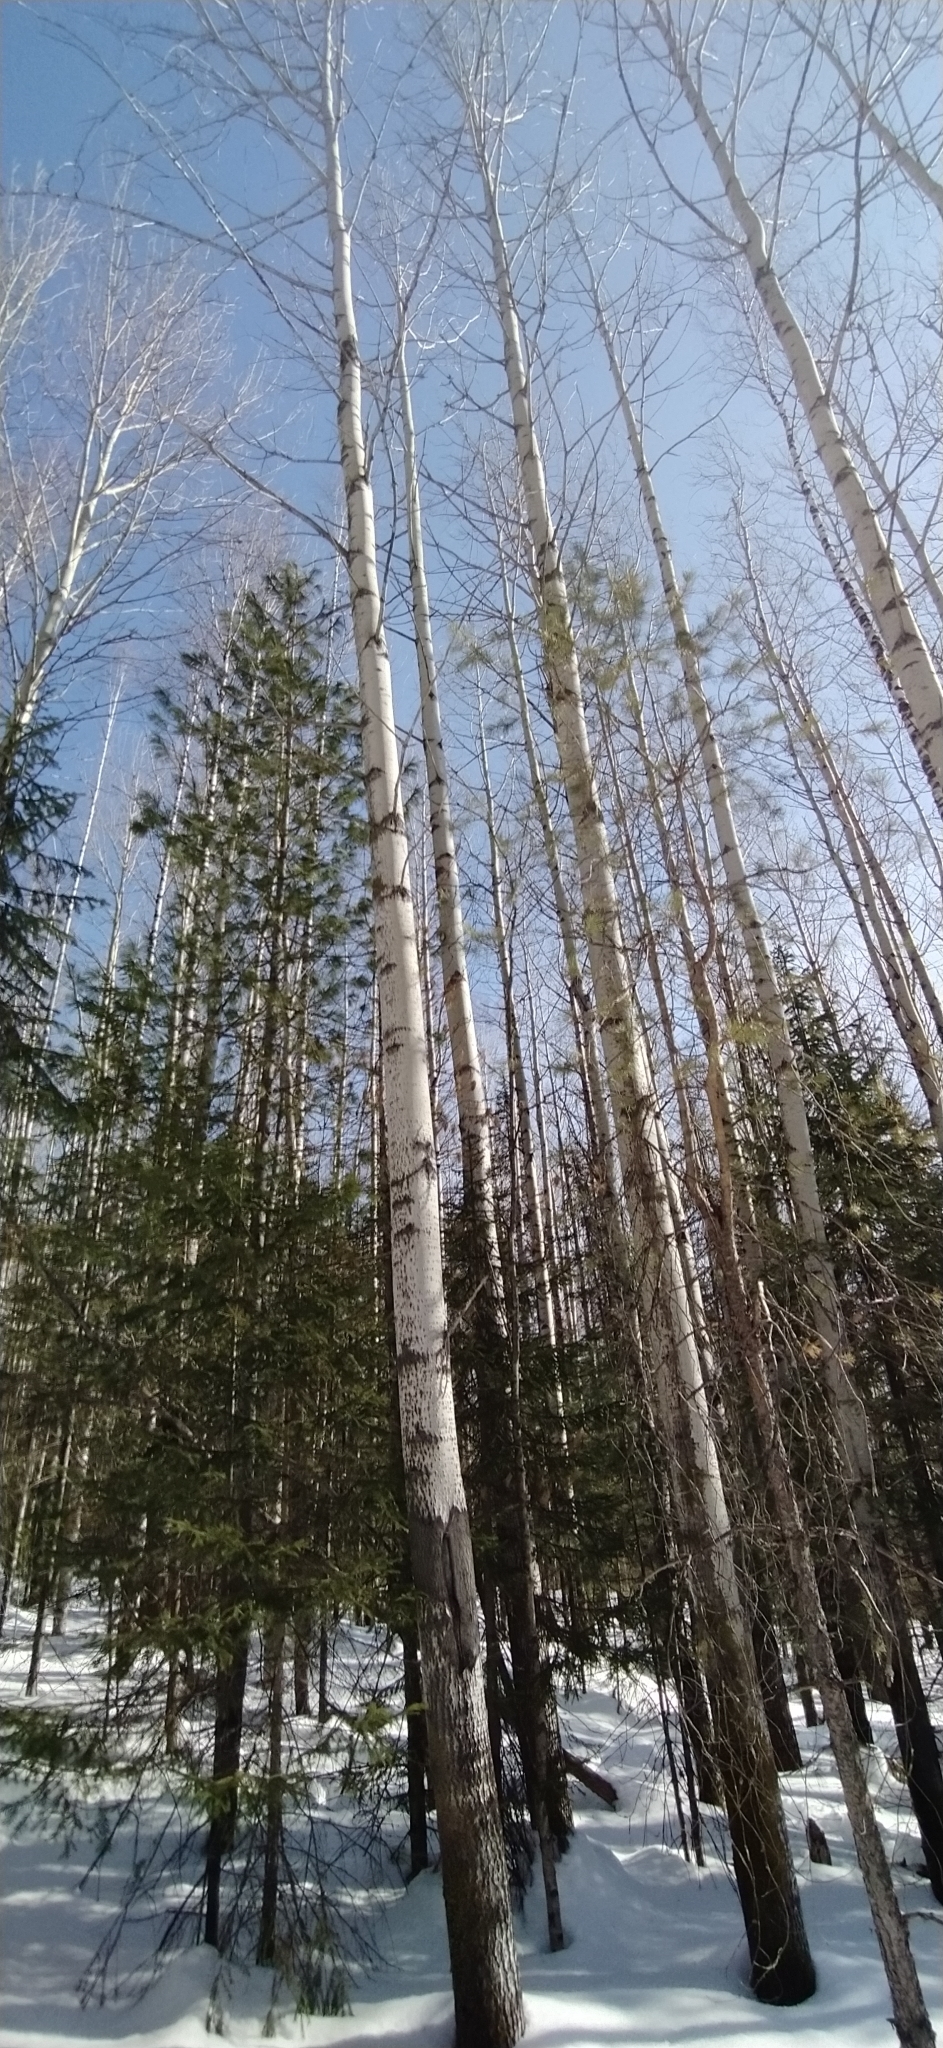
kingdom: Plantae
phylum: Tracheophyta
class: Magnoliopsida
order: Malpighiales
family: Salicaceae
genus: Populus
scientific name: Populus tremula
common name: European aspen
